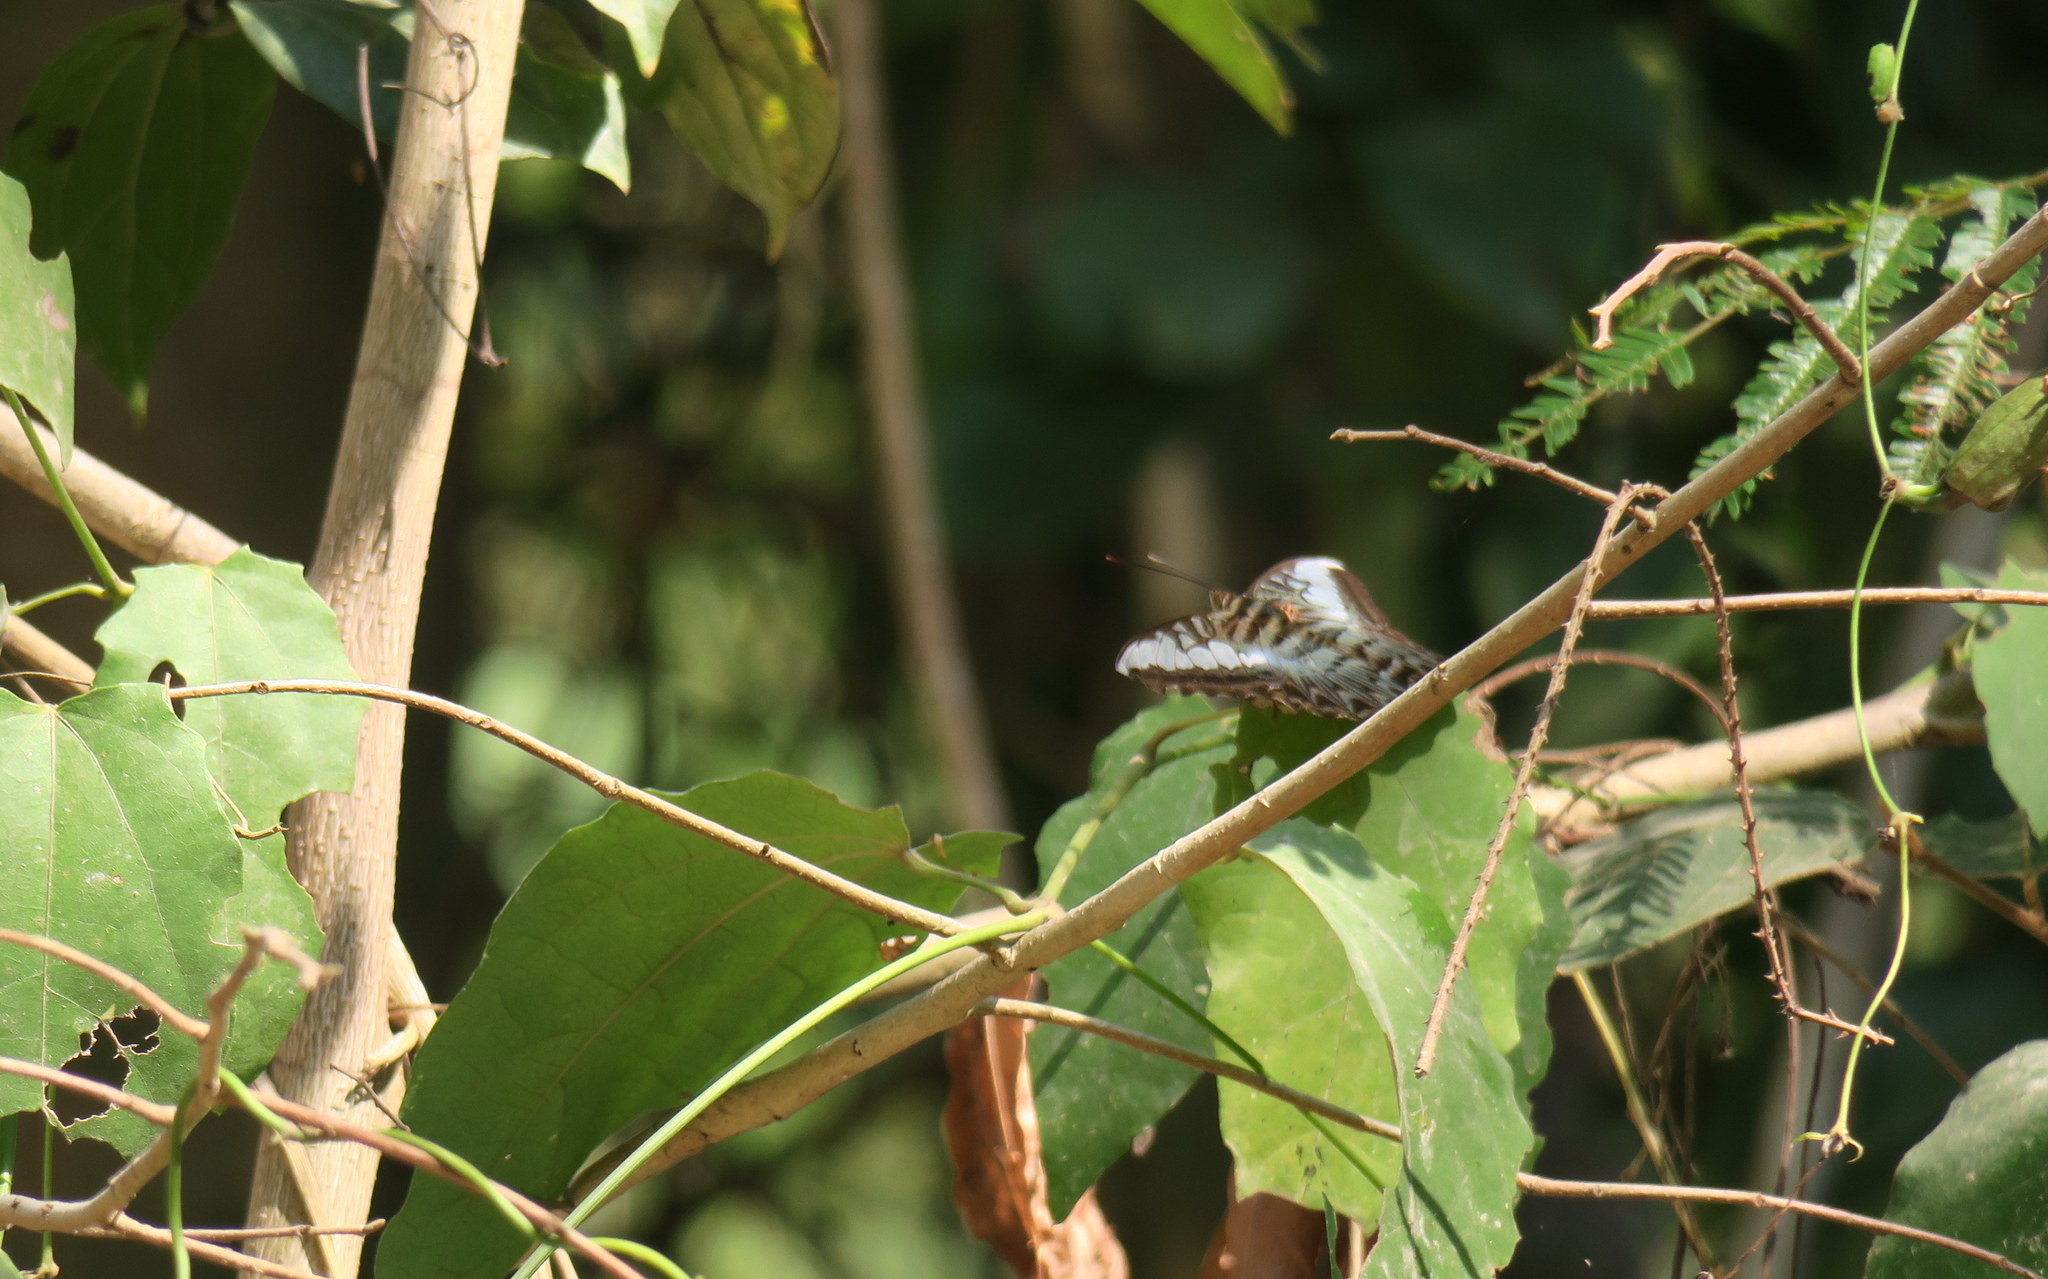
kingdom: Animalia
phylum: Arthropoda
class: Insecta
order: Lepidoptera
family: Nymphalidae
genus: Kallima
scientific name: Kallima sylvia
